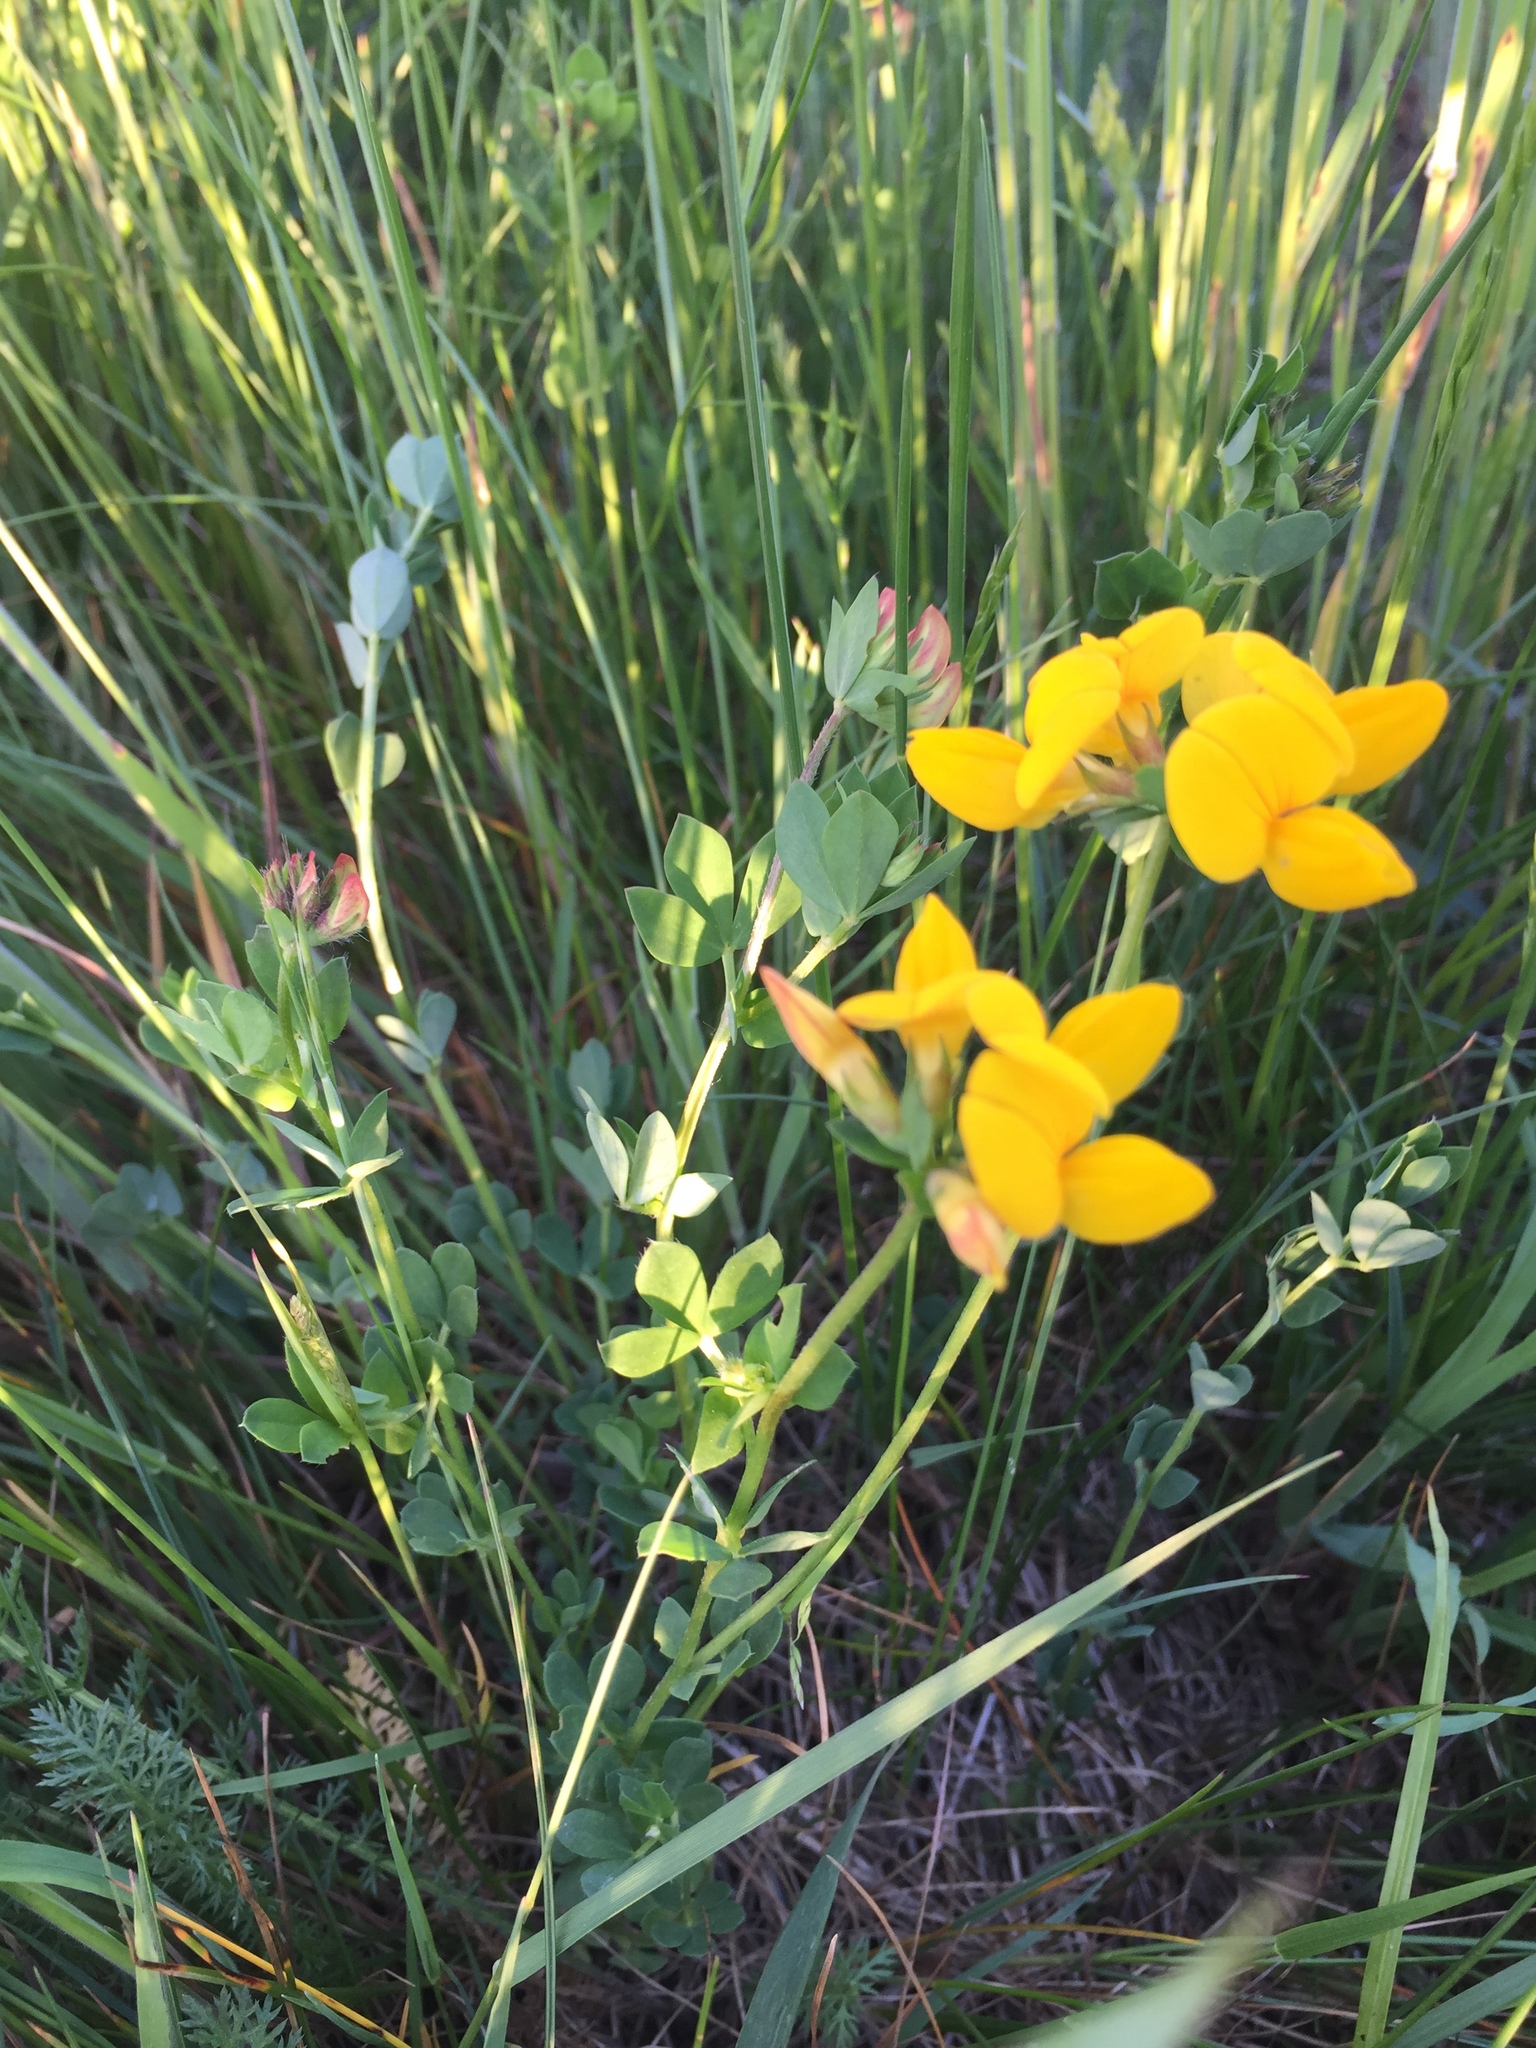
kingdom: Plantae
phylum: Tracheophyta
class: Magnoliopsida
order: Fabales
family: Fabaceae
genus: Lotus
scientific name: Lotus corniculatus
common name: Common bird's-foot-trefoil
